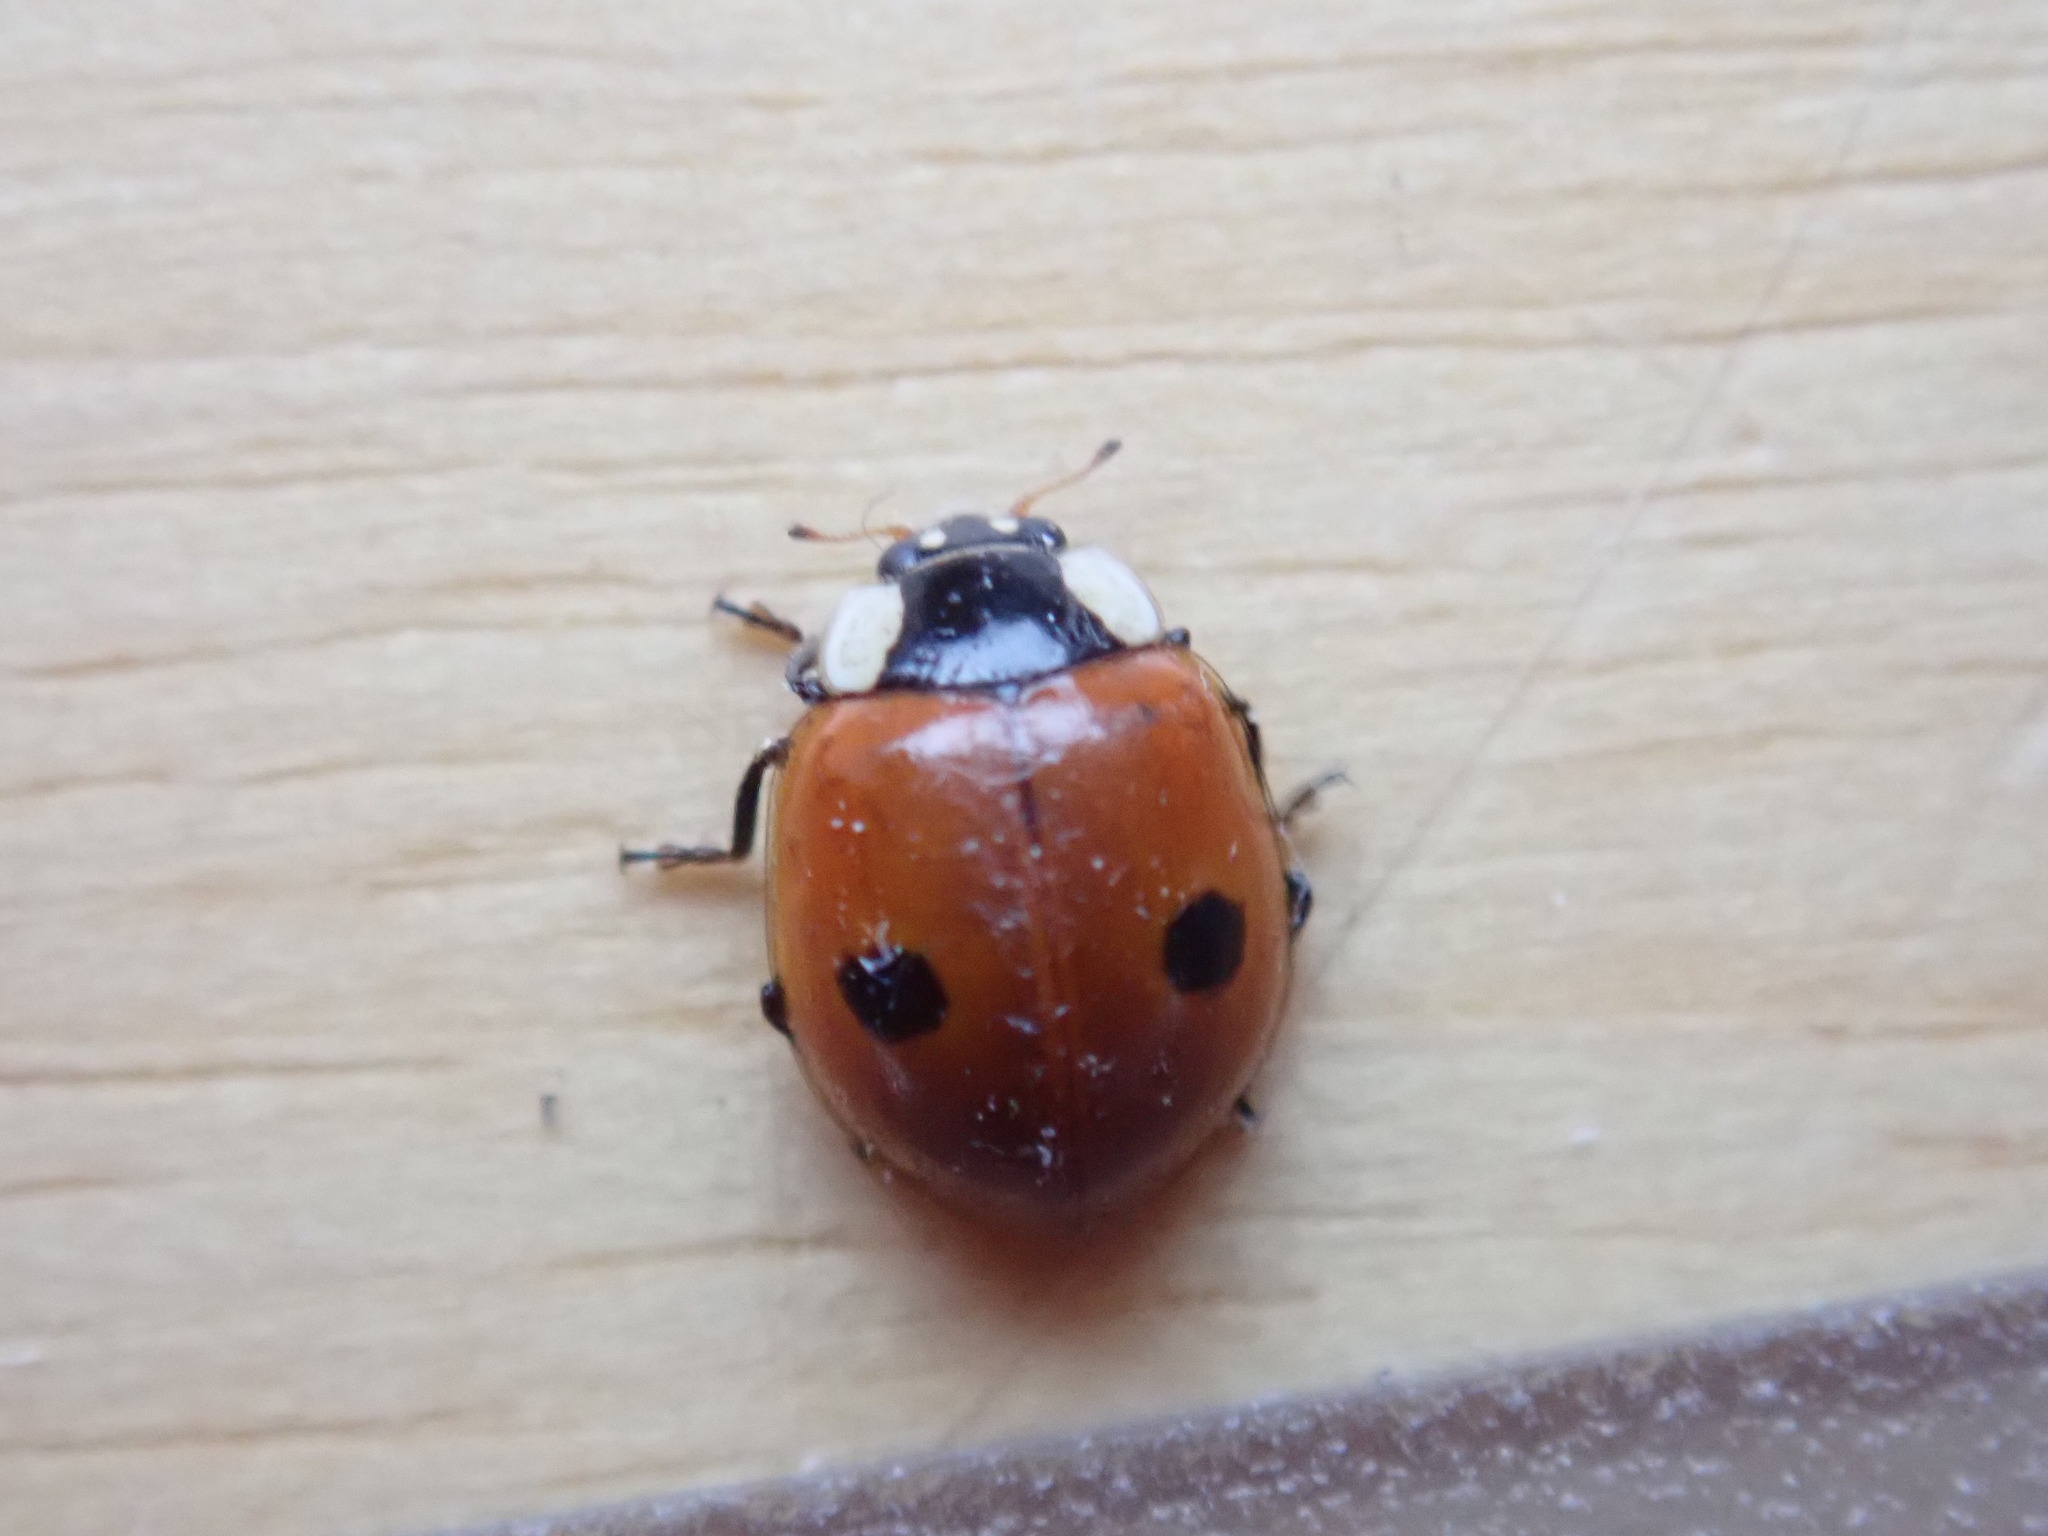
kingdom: Animalia
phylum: Arthropoda
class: Insecta
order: Coleoptera
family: Coccinellidae
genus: Adalia
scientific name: Adalia bipunctata
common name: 2-spot ladybird
